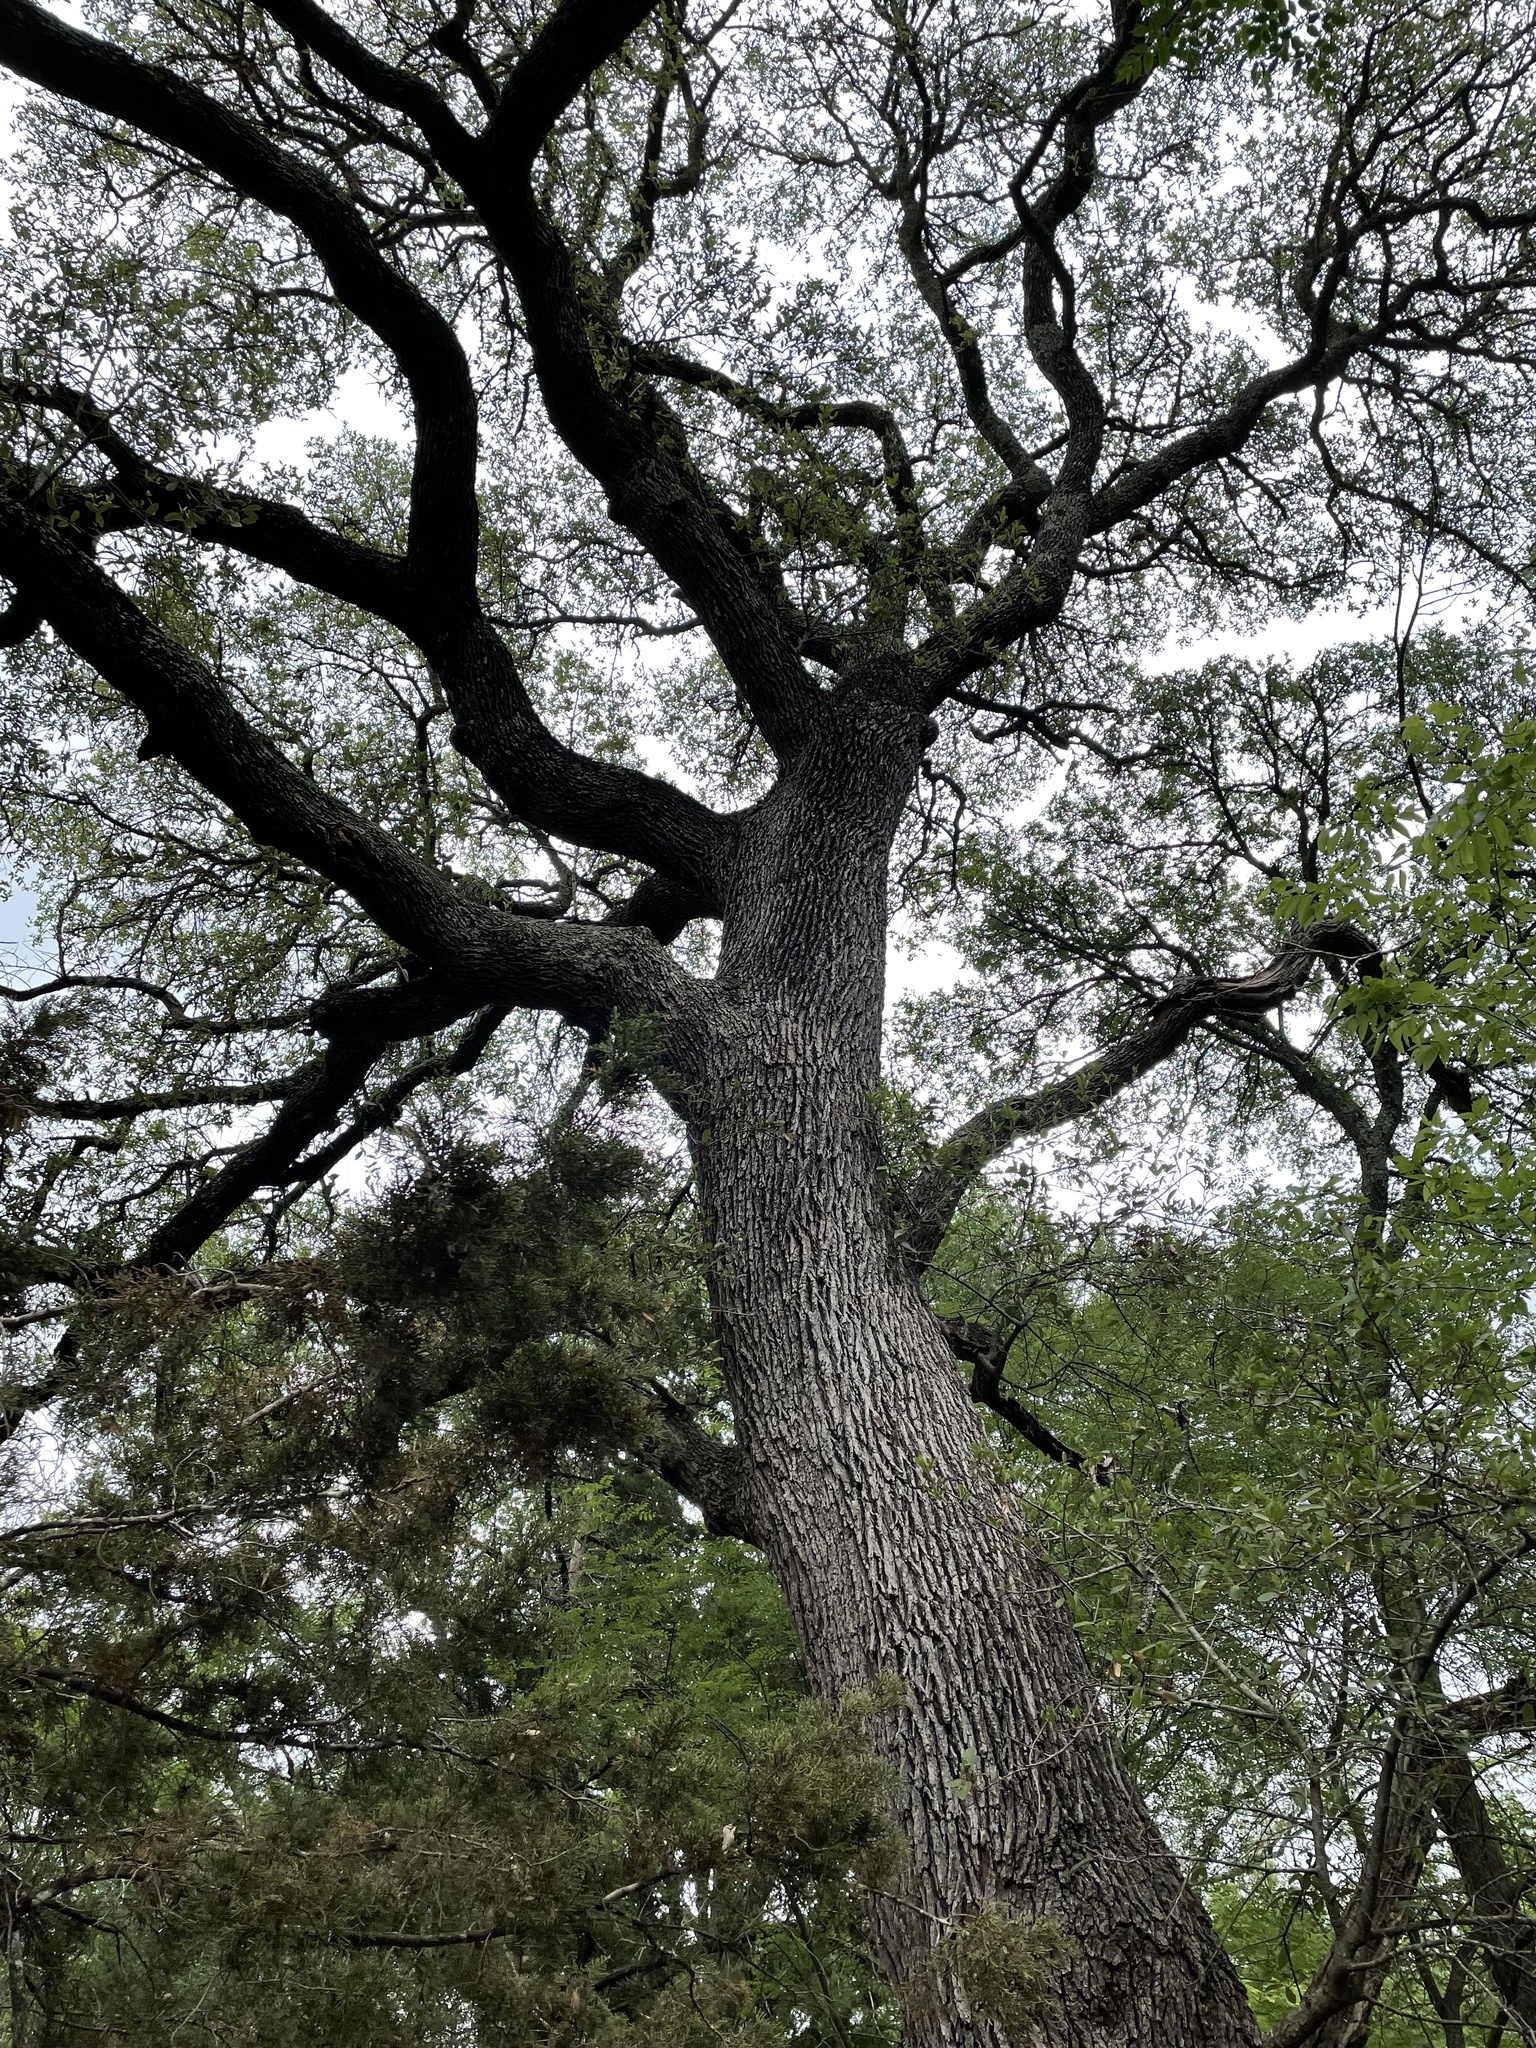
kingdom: Plantae
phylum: Tracheophyta
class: Magnoliopsida
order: Fagales
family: Fagaceae
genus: Quercus
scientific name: Quercus fusiformis
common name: Texas live oak
